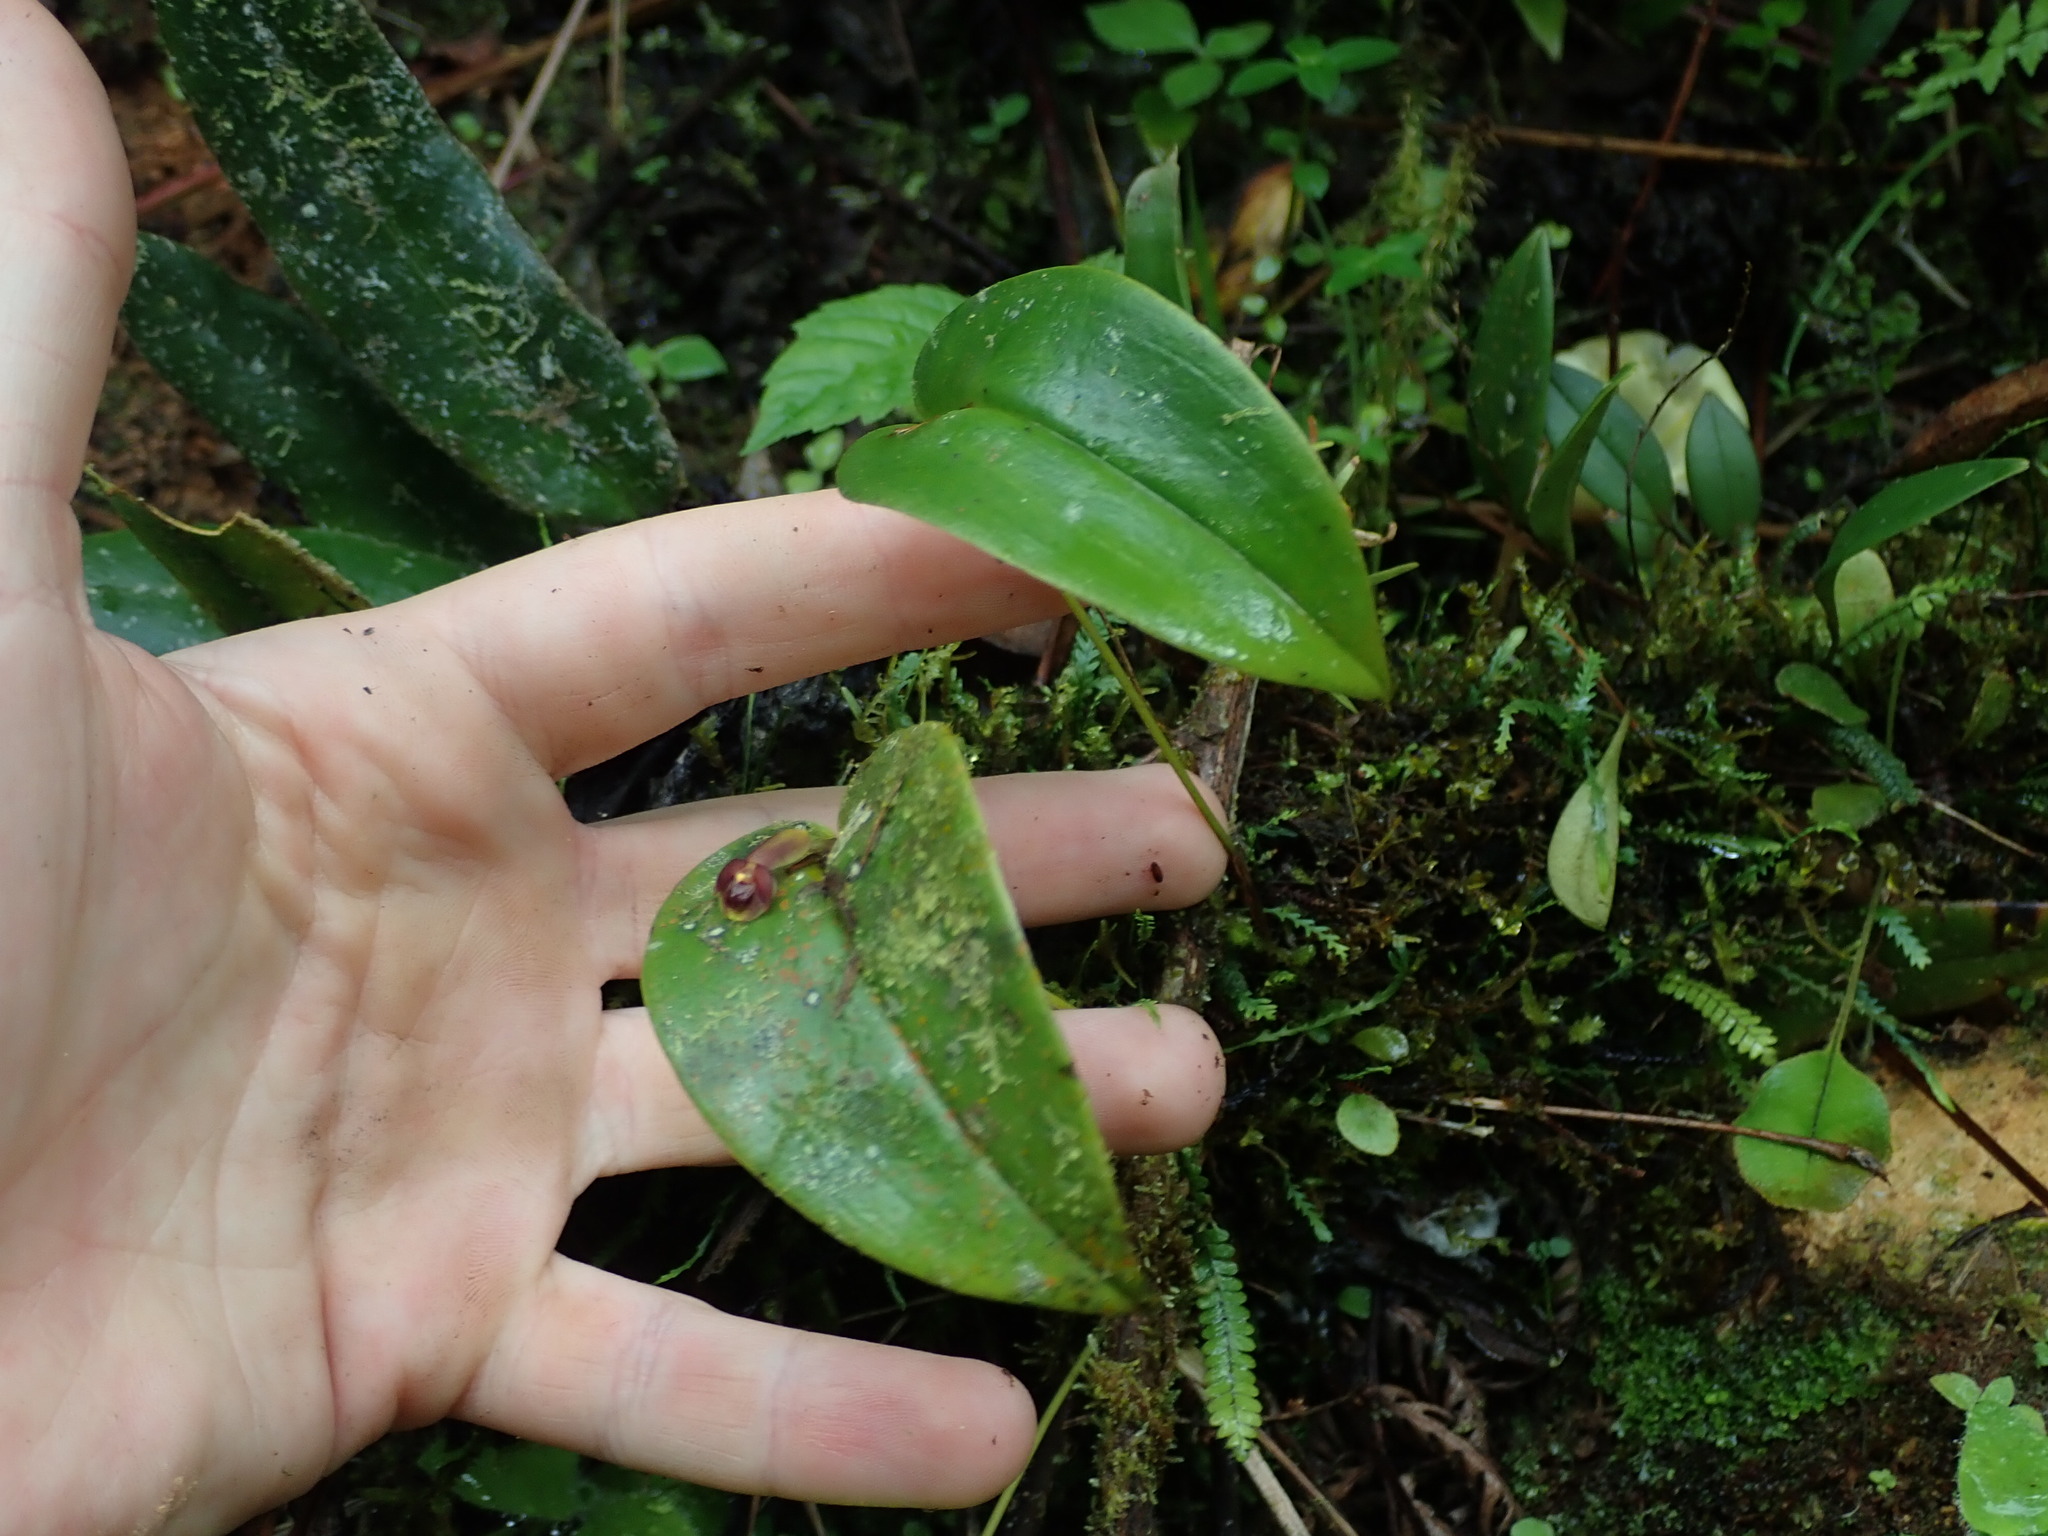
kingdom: Plantae
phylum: Tracheophyta
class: Liliopsida
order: Asparagales
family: Orchidaceae
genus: Pleurothallis
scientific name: Pleurothallis cordata
